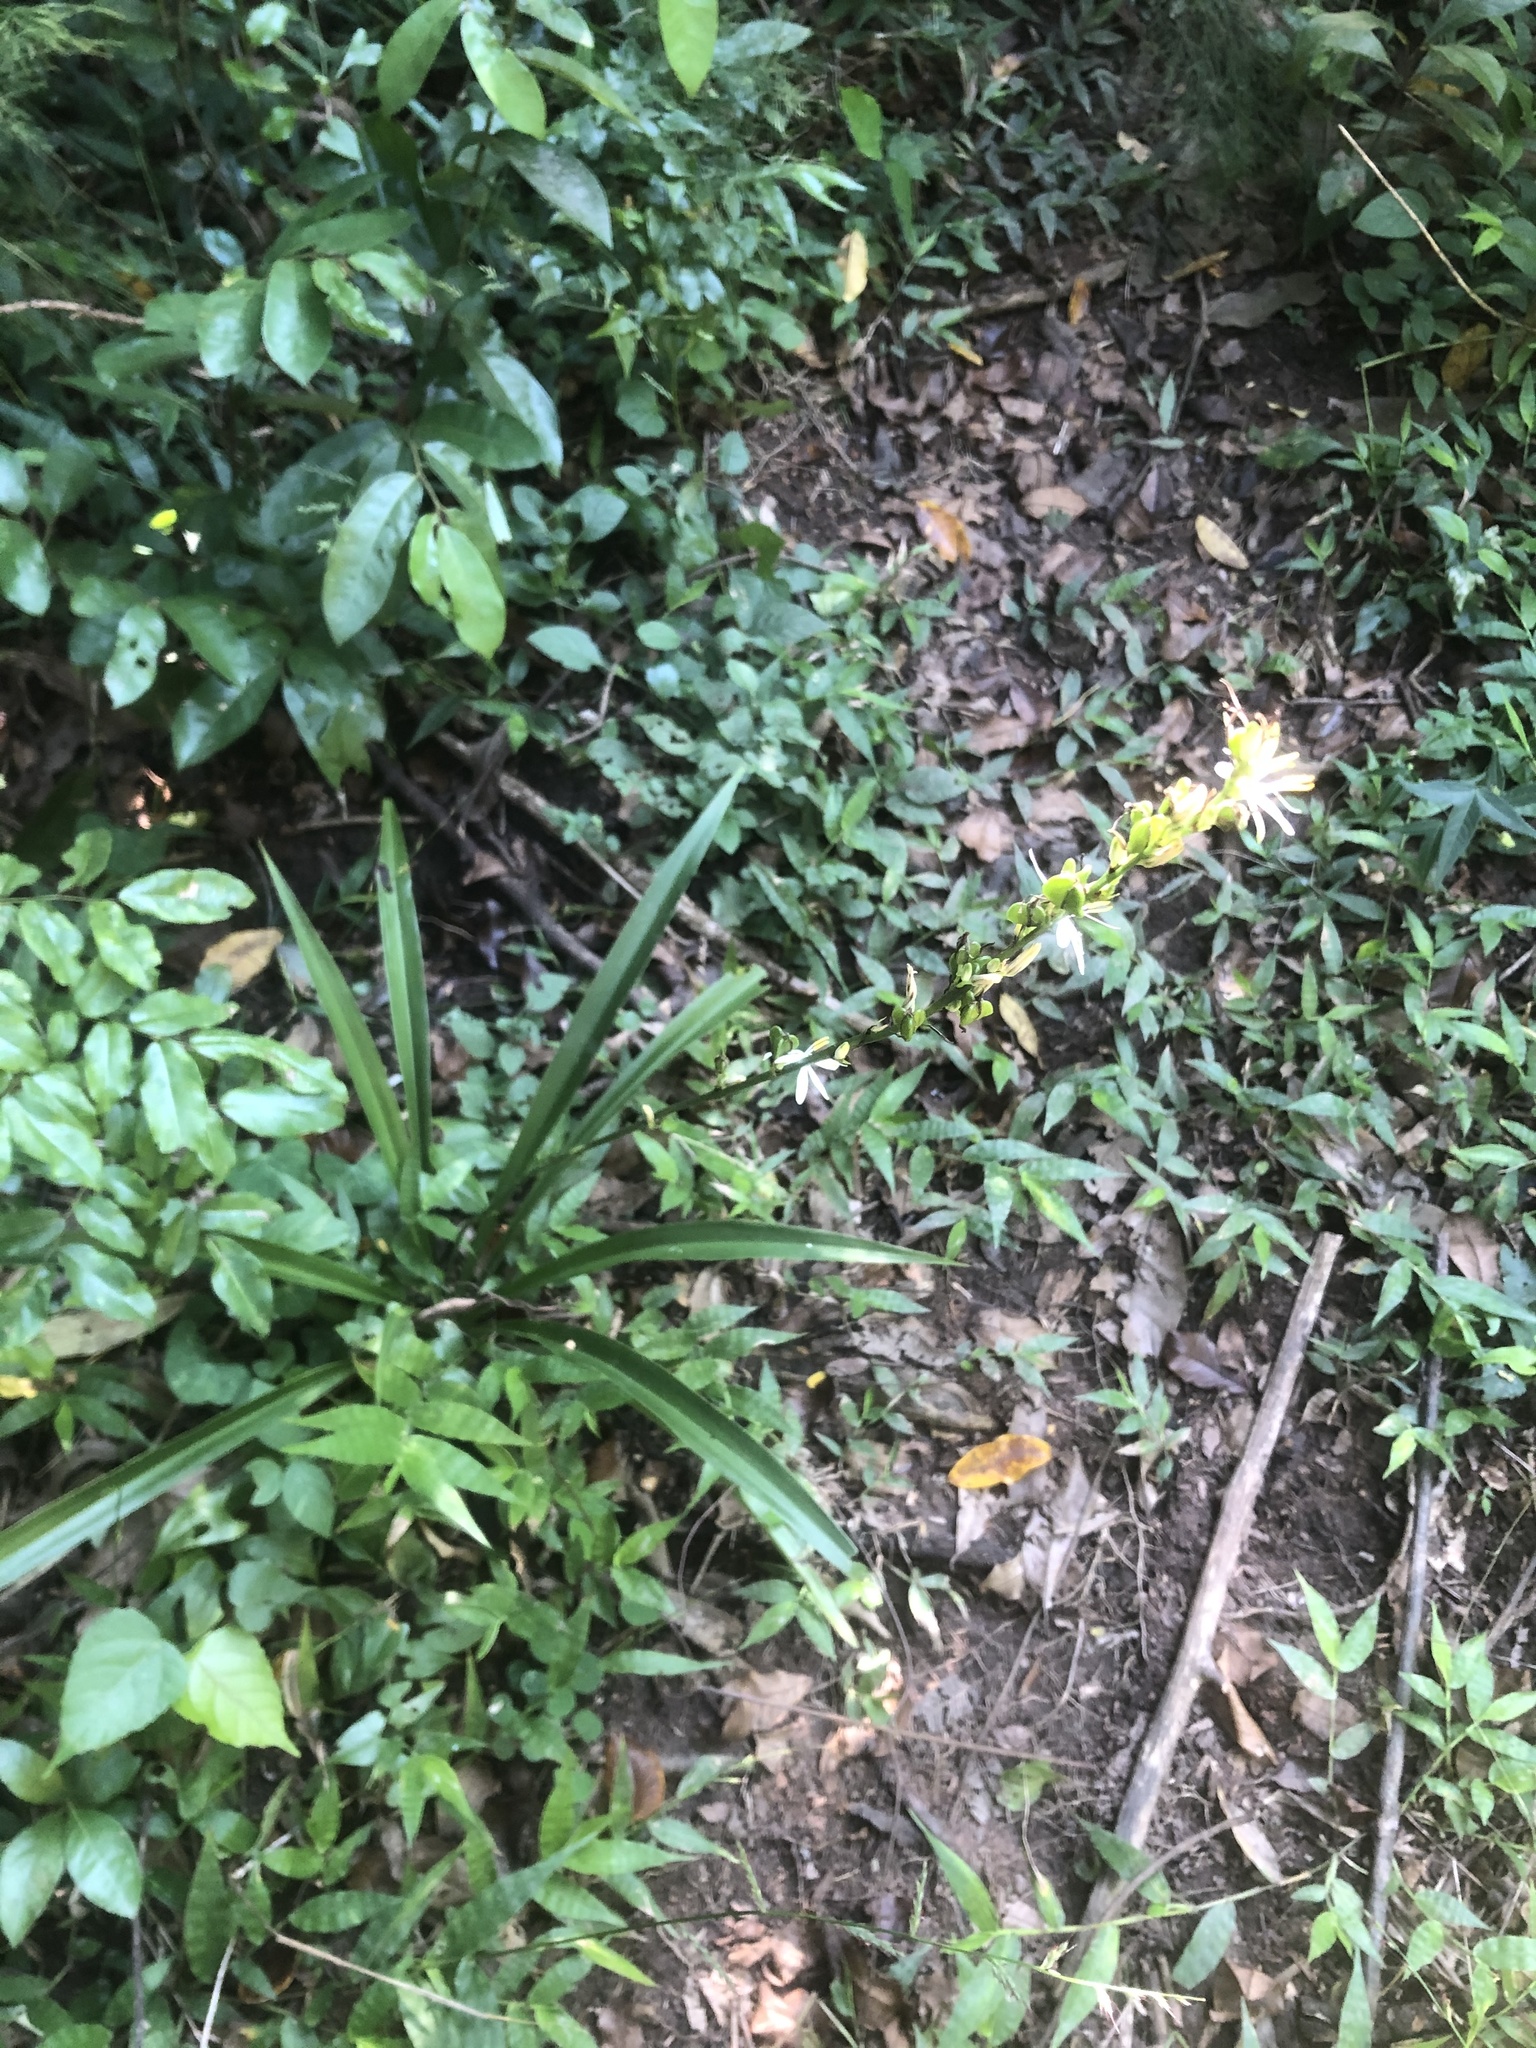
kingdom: Plantae
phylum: Tracheophyta
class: Liliopsida
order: Asparagales
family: Asparagaceae
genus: Chlorophytum
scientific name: Chlorophytum modestum
